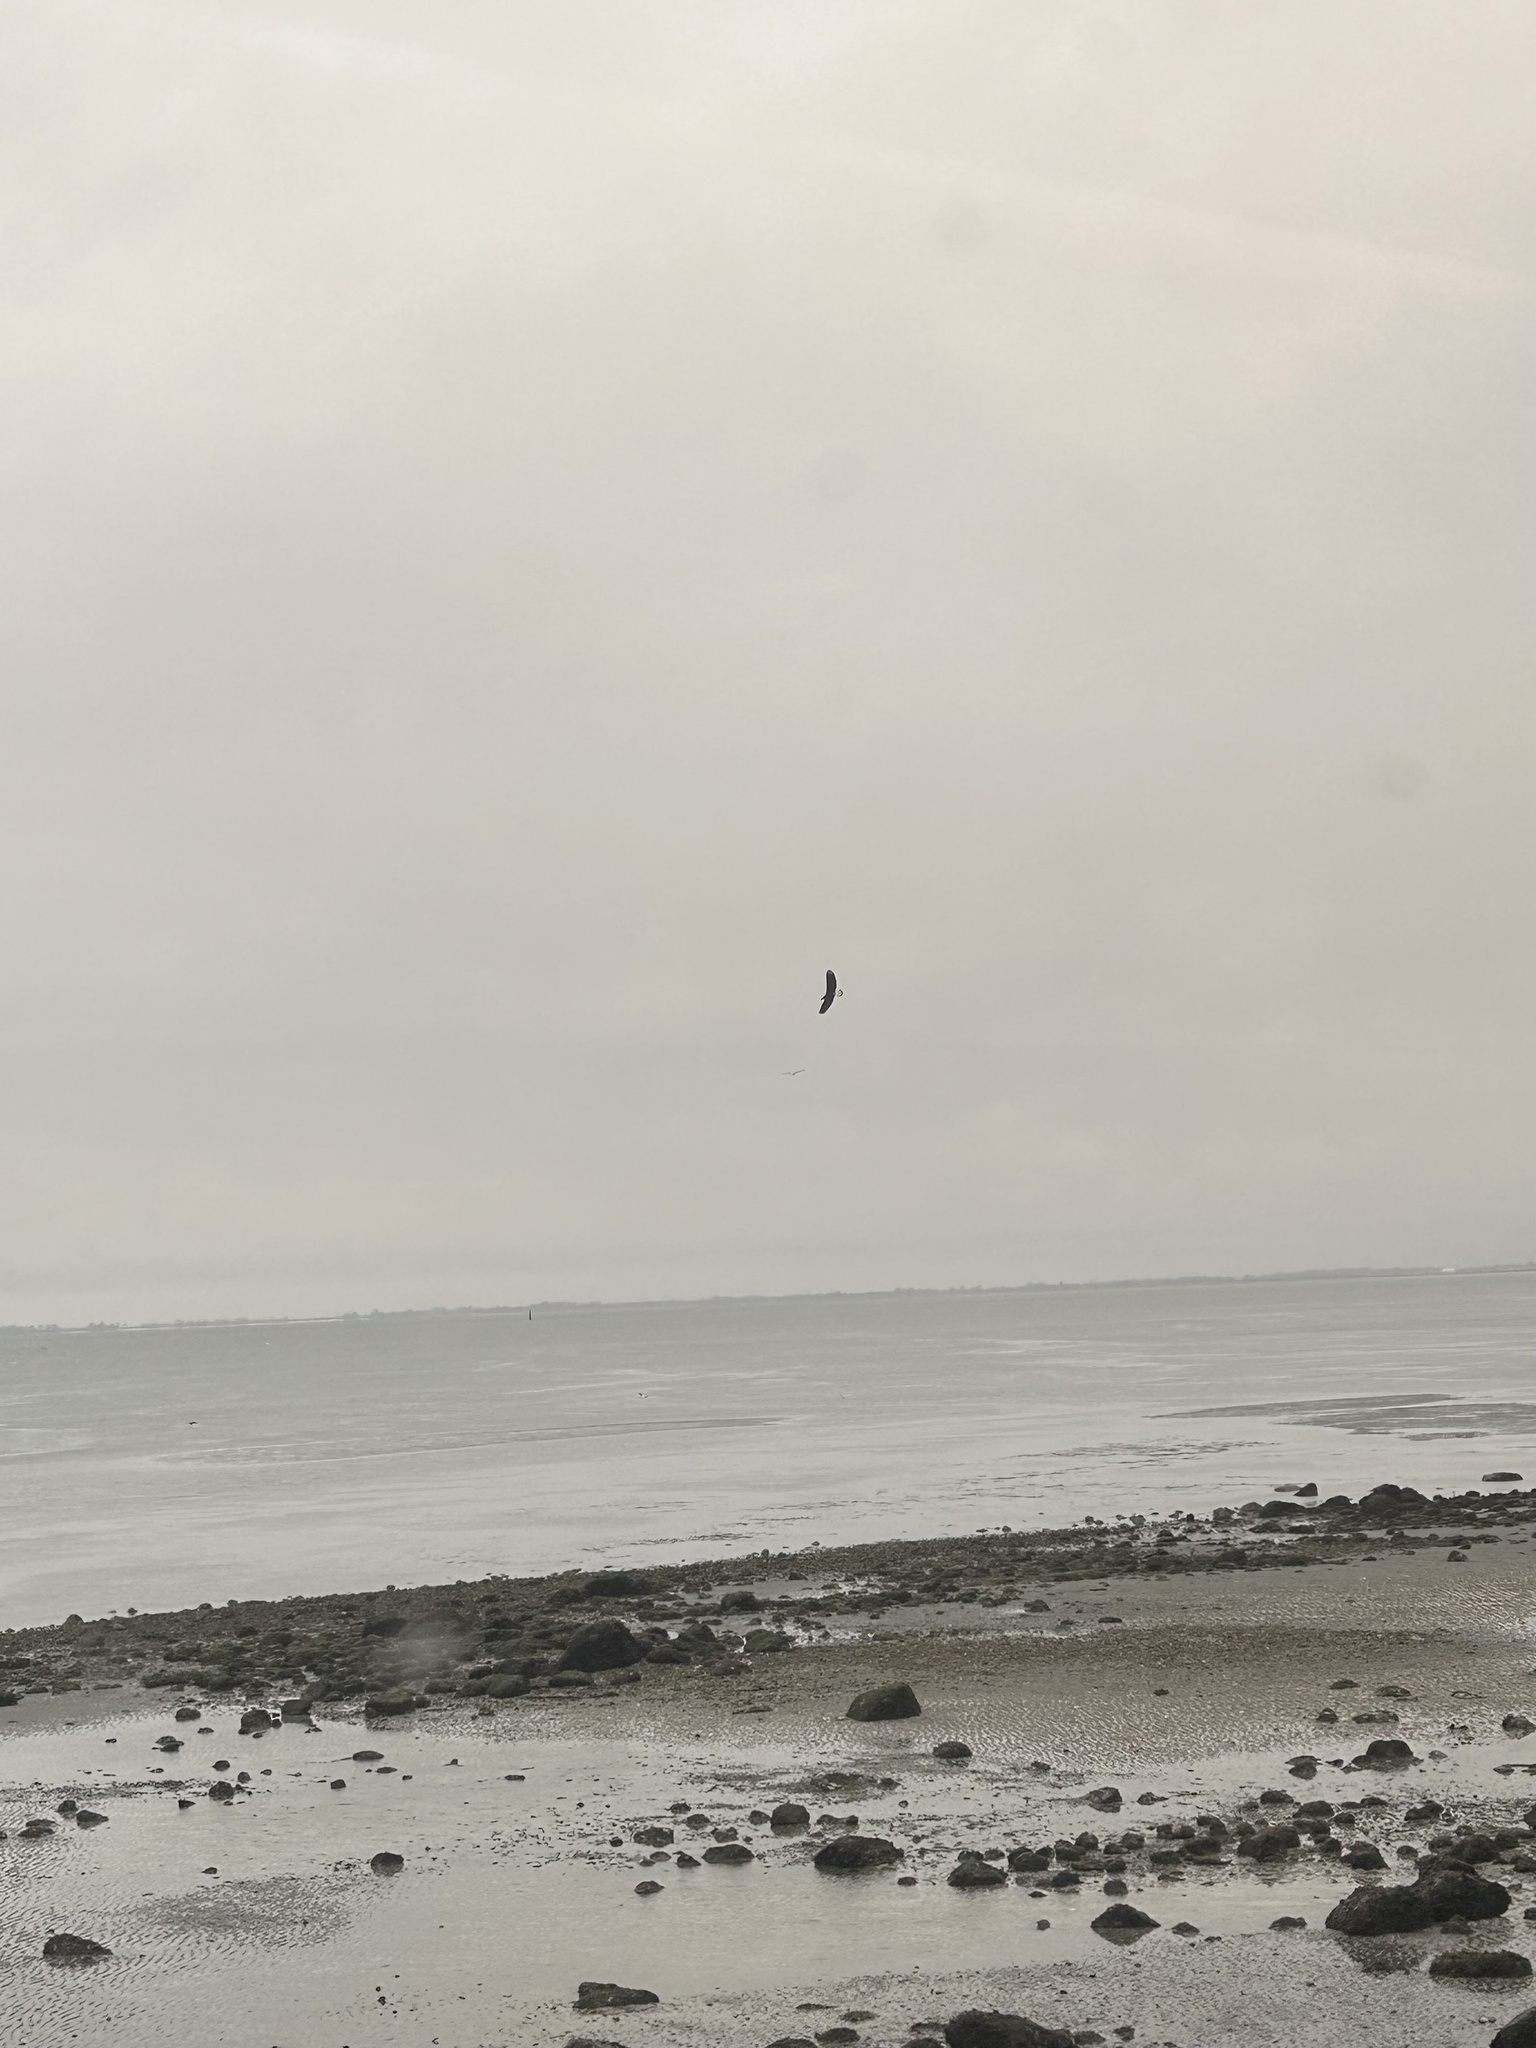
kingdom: Animalia
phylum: Chordata
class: Aves
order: Accipitriformes
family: Accipitridae
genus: Haliaeetus
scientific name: Haliaeetus leucocephalus
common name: Bald eagle
